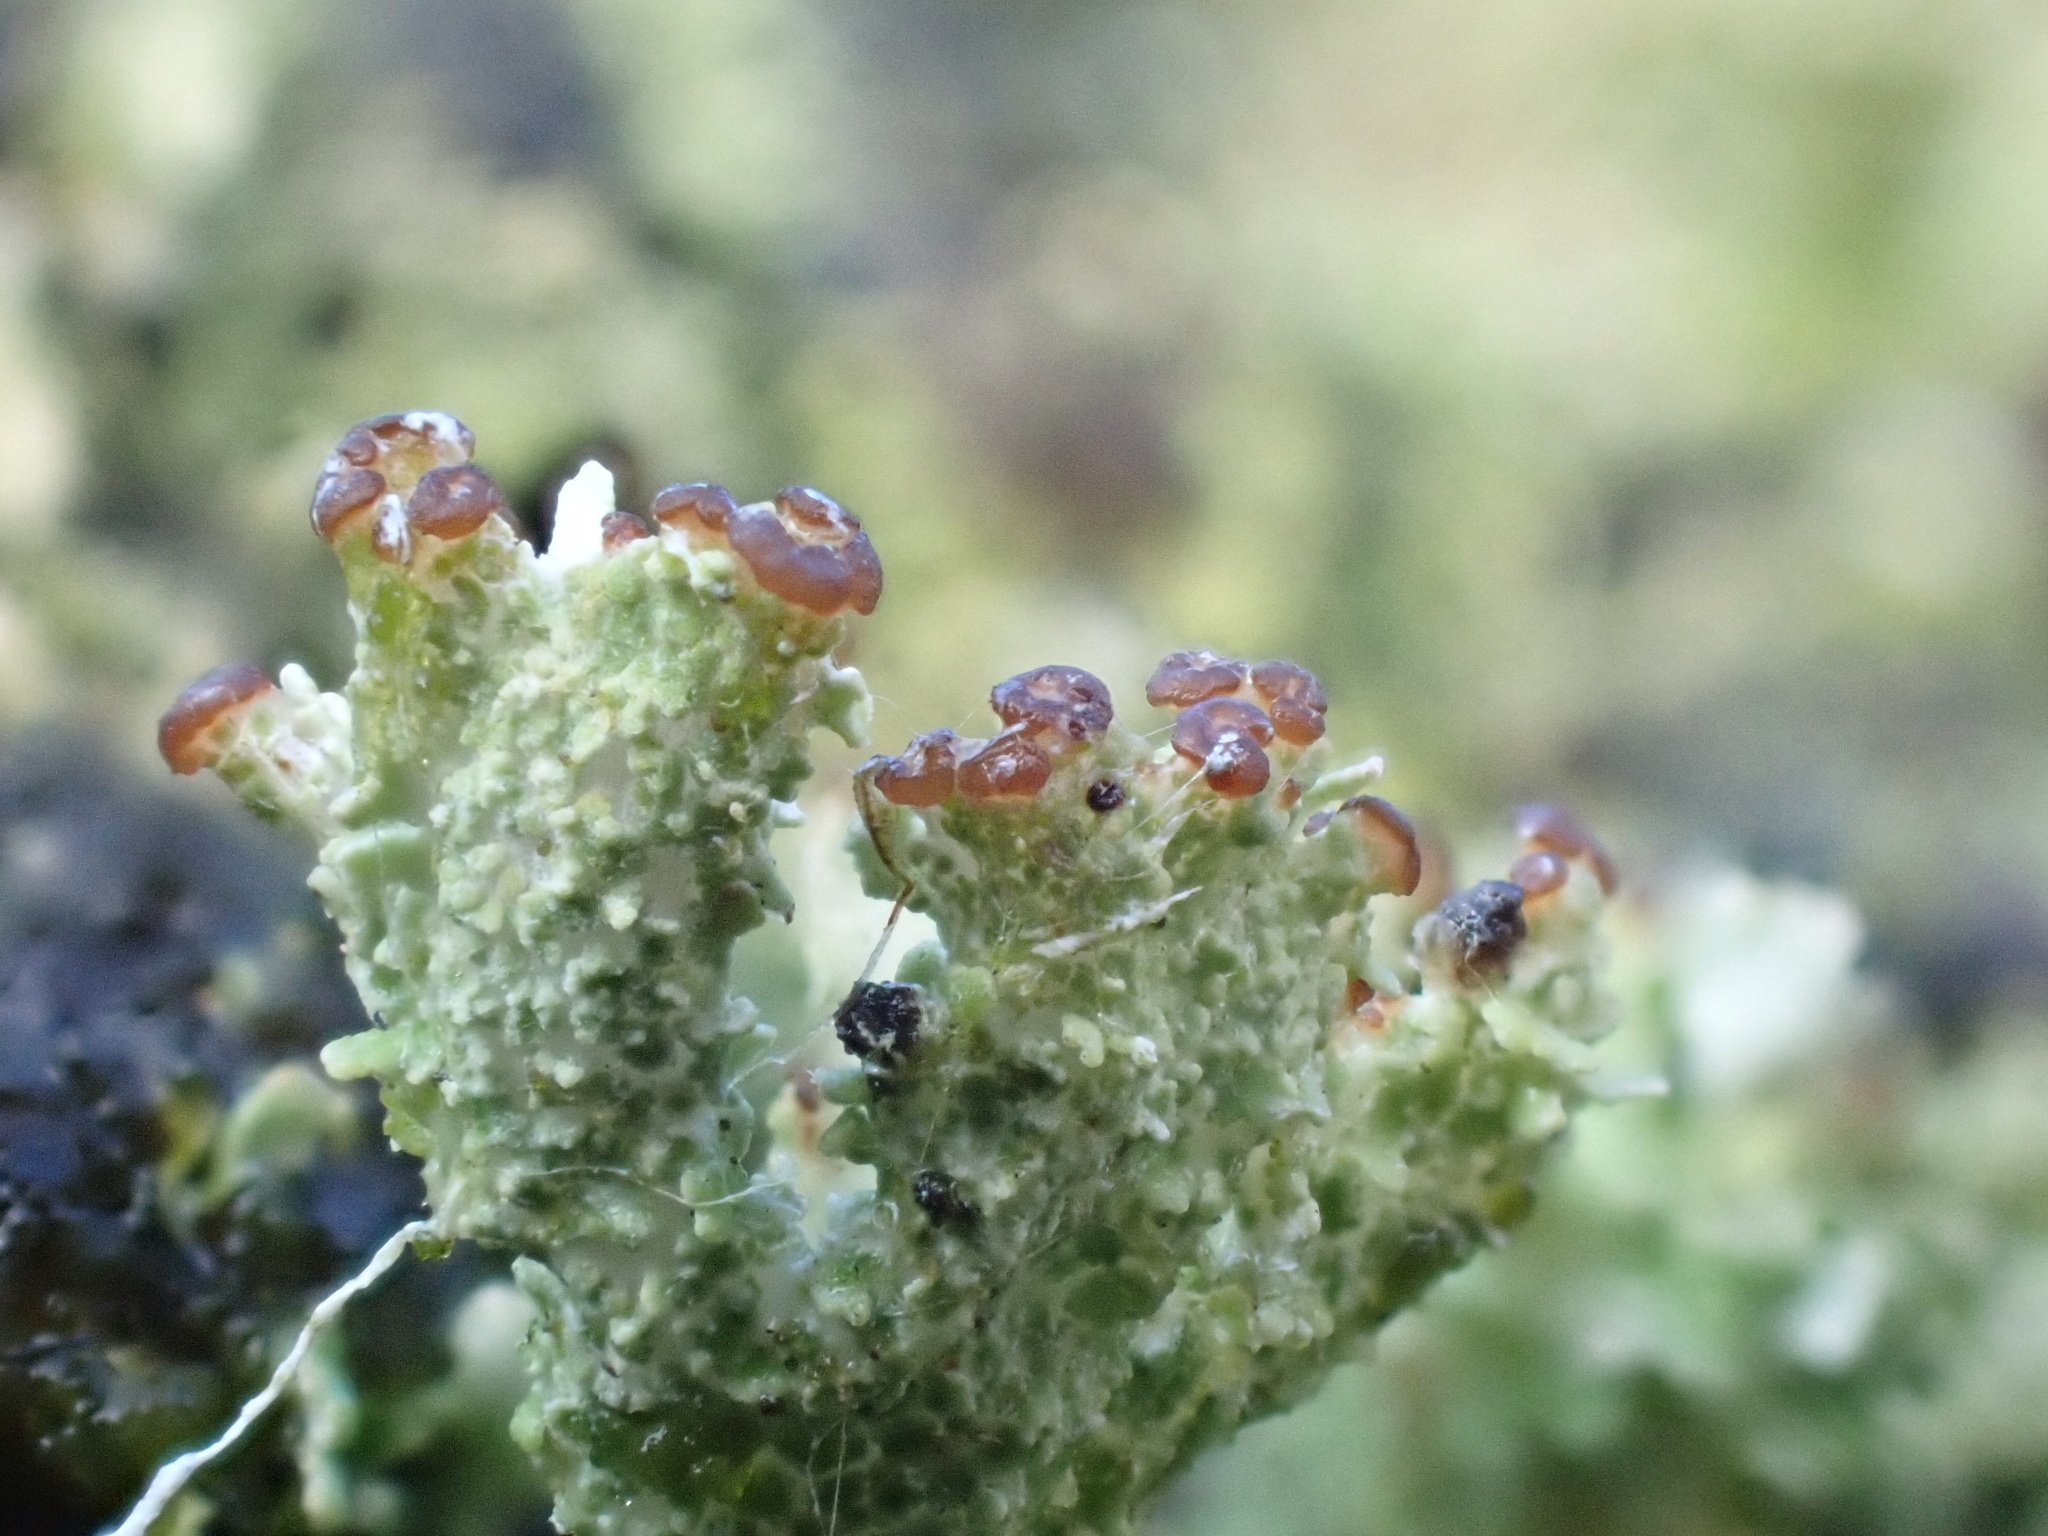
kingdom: Fungi
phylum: Ascomycota
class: Lecanoromycetes
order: Lecanorales
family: Cladoniaceae
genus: Cladonia
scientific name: Cladonia ramulosa
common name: Branched pixie-cup lichen
